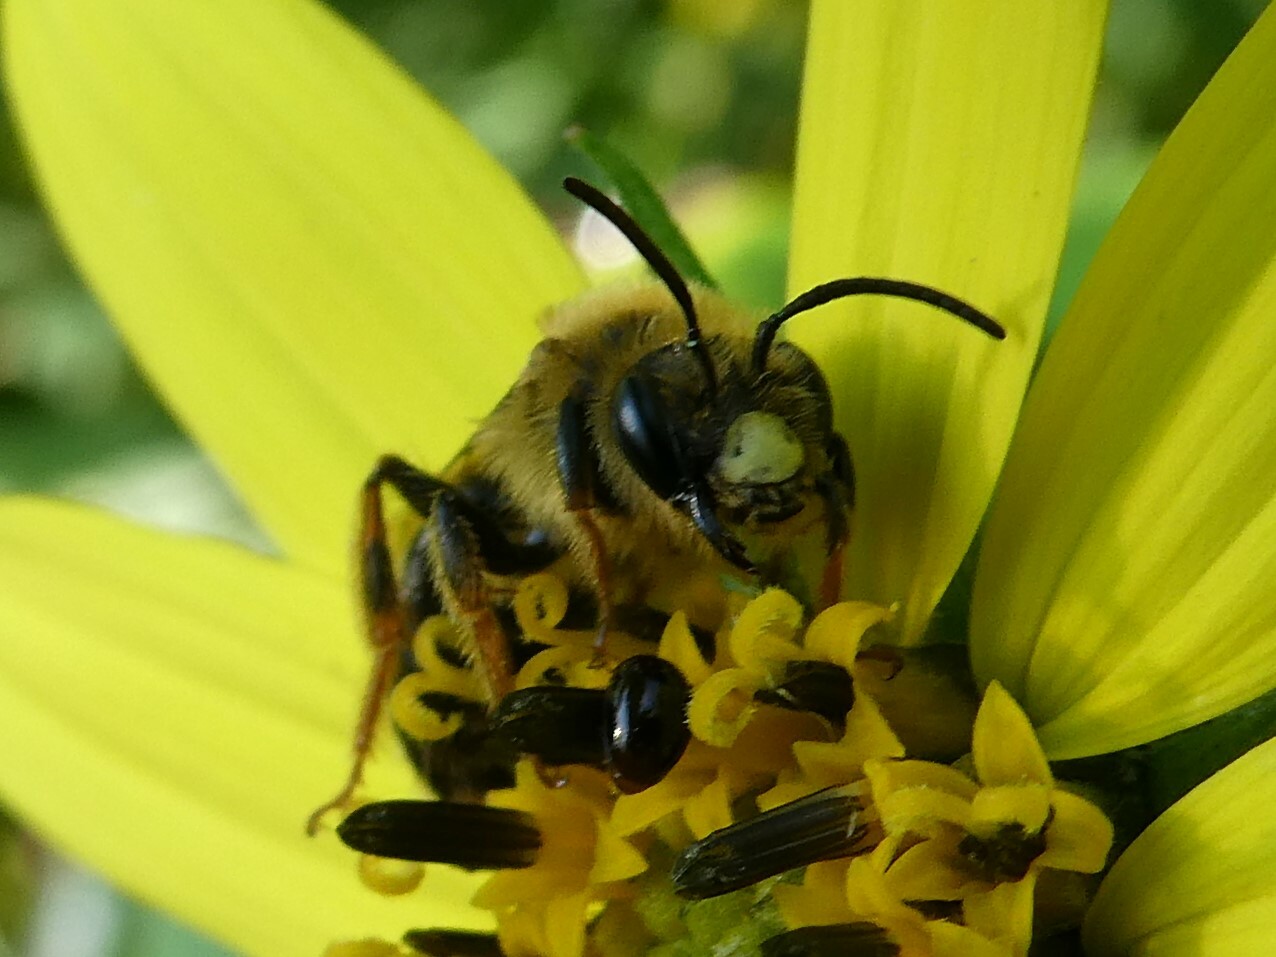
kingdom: Animalia
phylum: Arthropoda
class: Insecta
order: Hymenoptera
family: Andrenidae
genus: Andrena
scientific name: Andrena helianthi
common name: Sunflower mining bee
